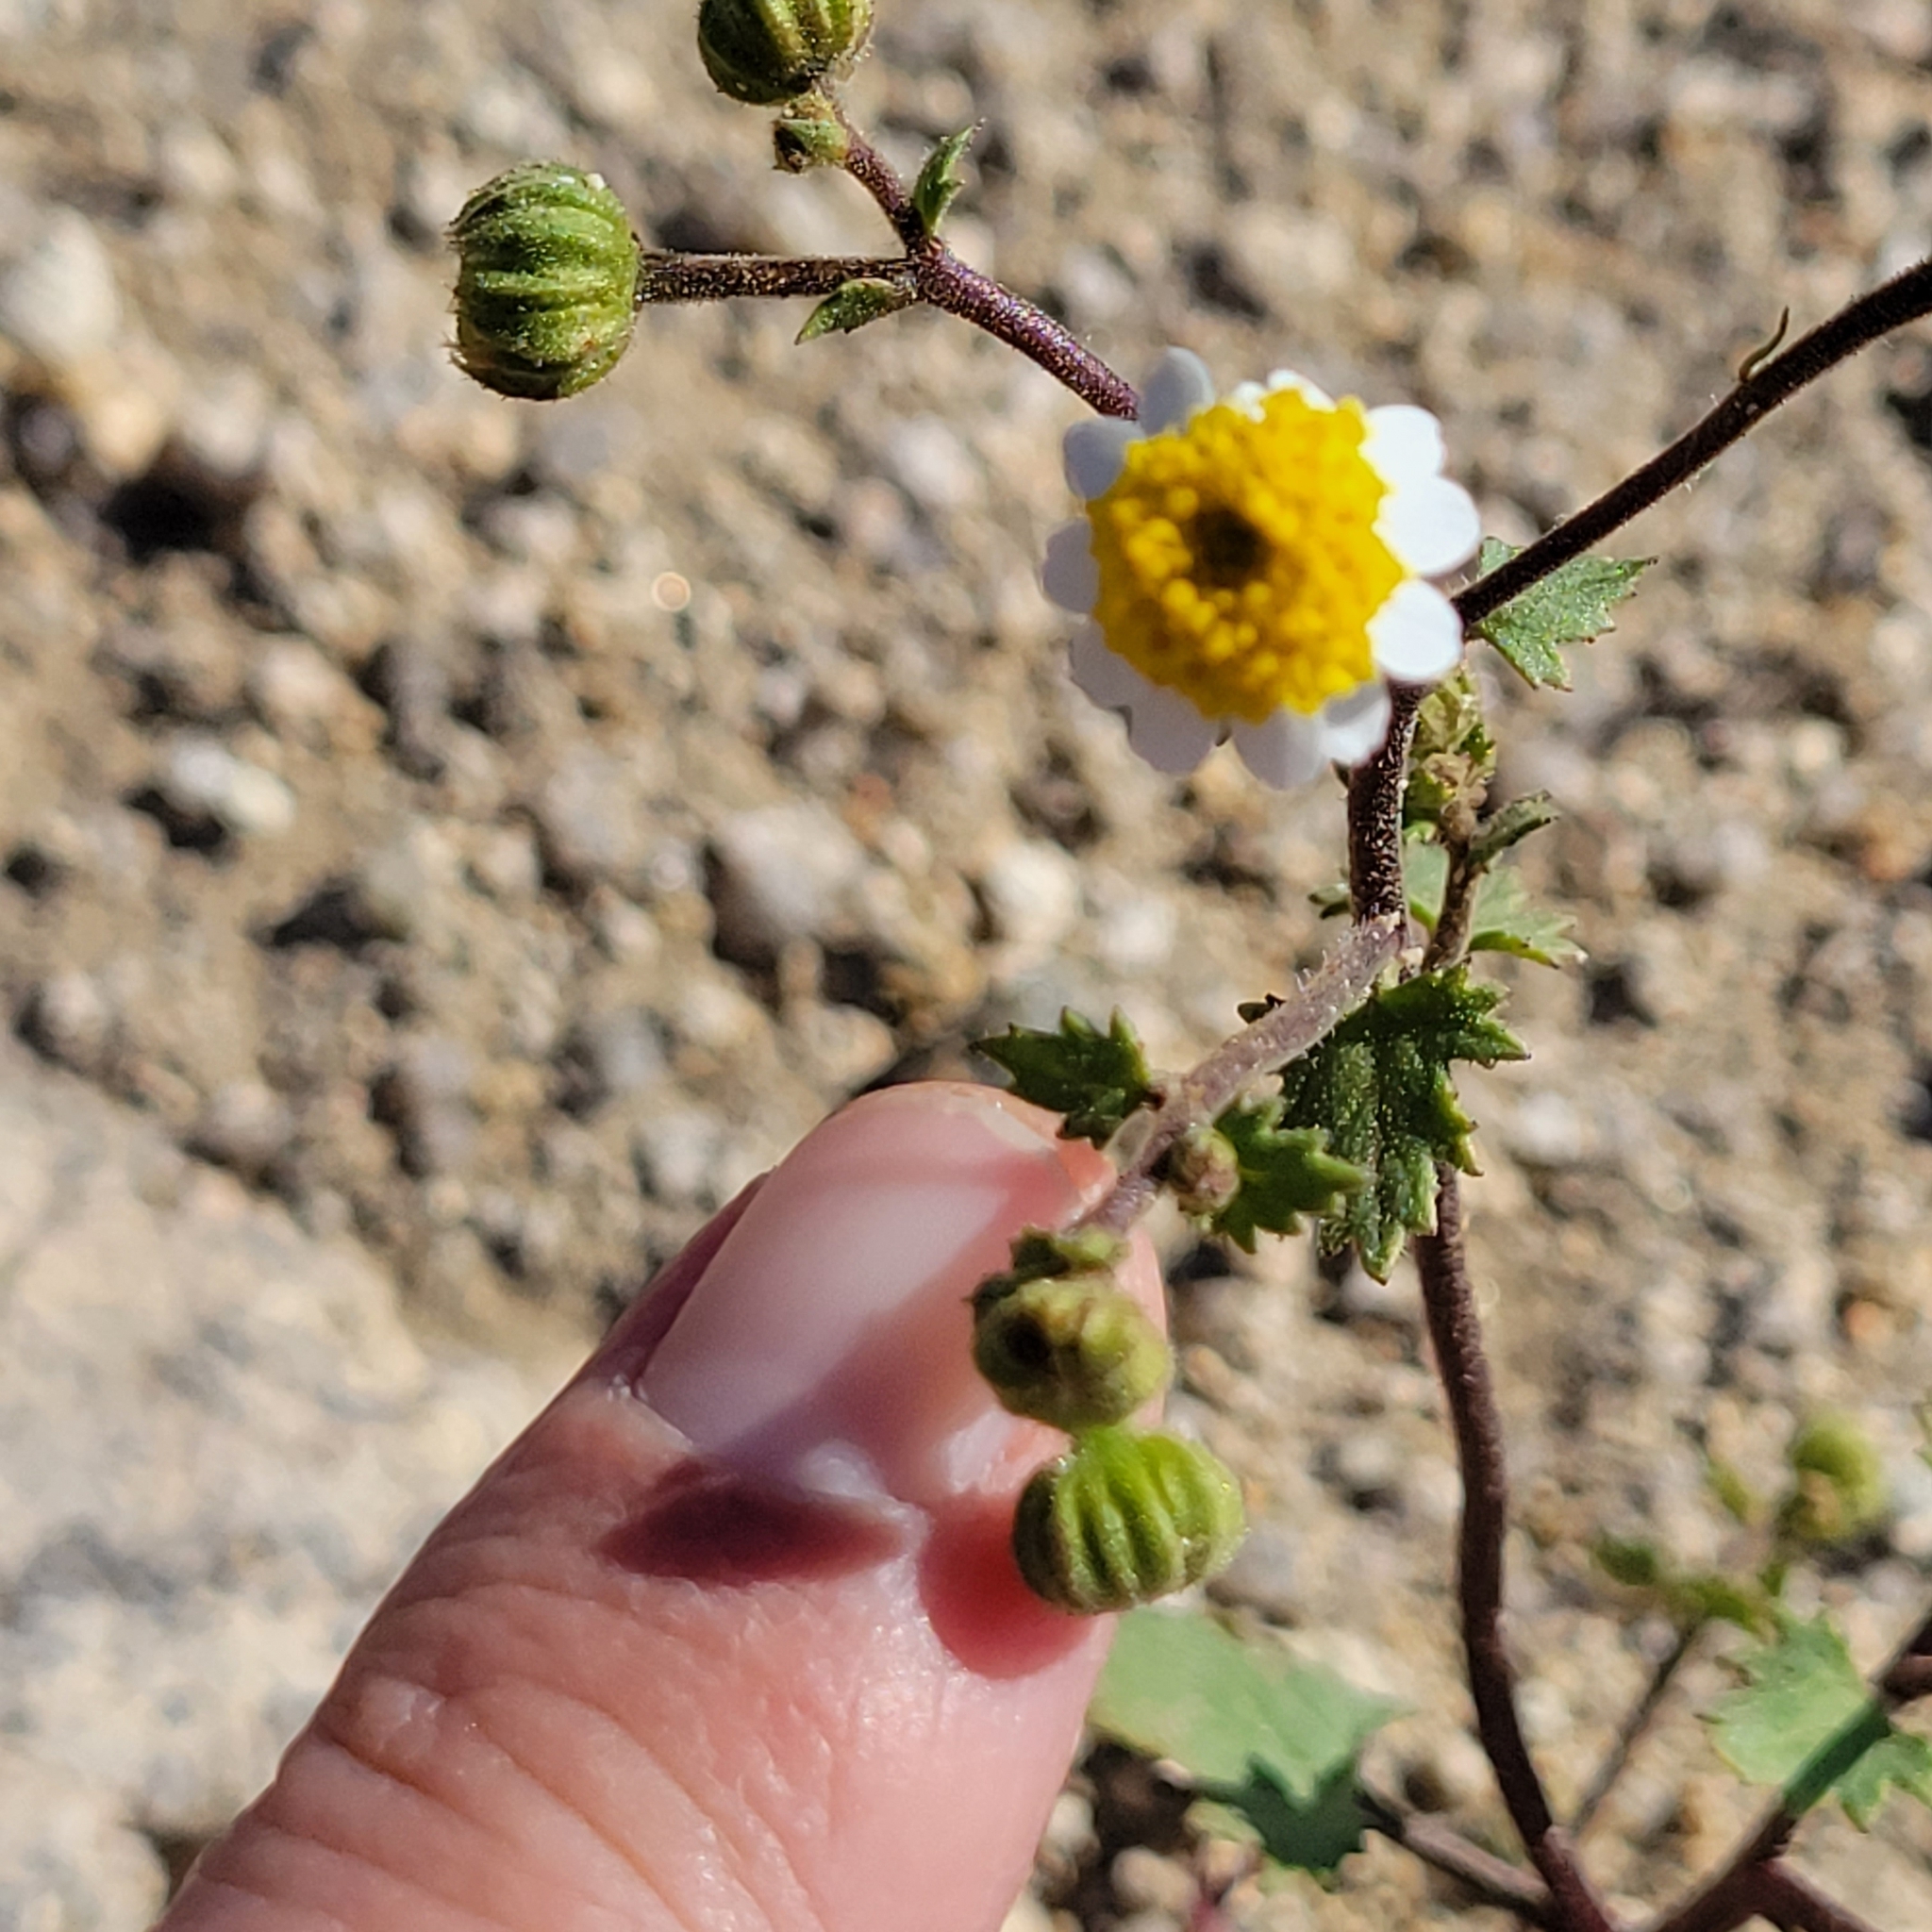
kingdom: Plantae
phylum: Tracheophyta
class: Magnoliopsida
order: Asterales
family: Asteraceae
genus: Laphamia
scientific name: Laphamia emoryi
